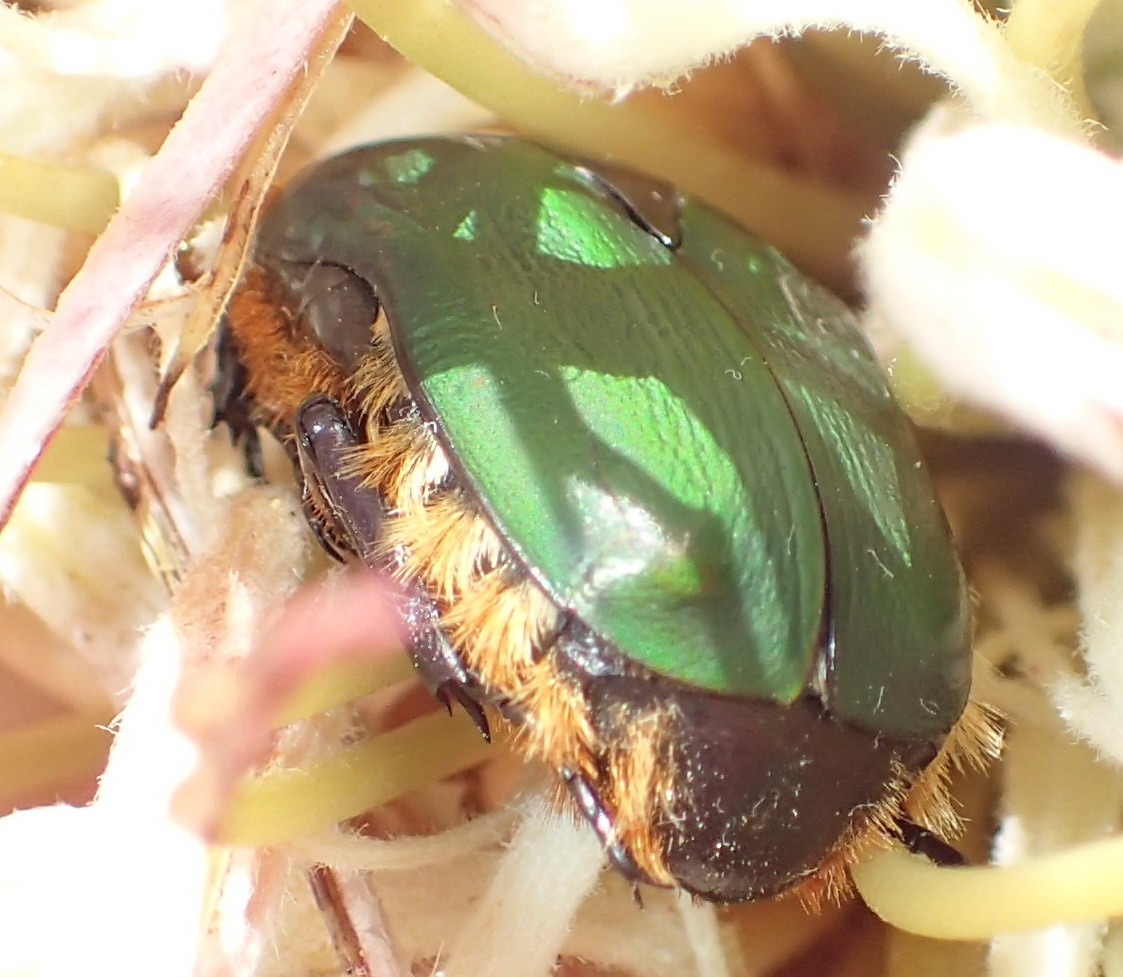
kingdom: Animalia
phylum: Arthropoda
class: Insecta
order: Coleoptera
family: Scarabaeidae
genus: Trichostetha
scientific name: Trichostetha fascicularis
